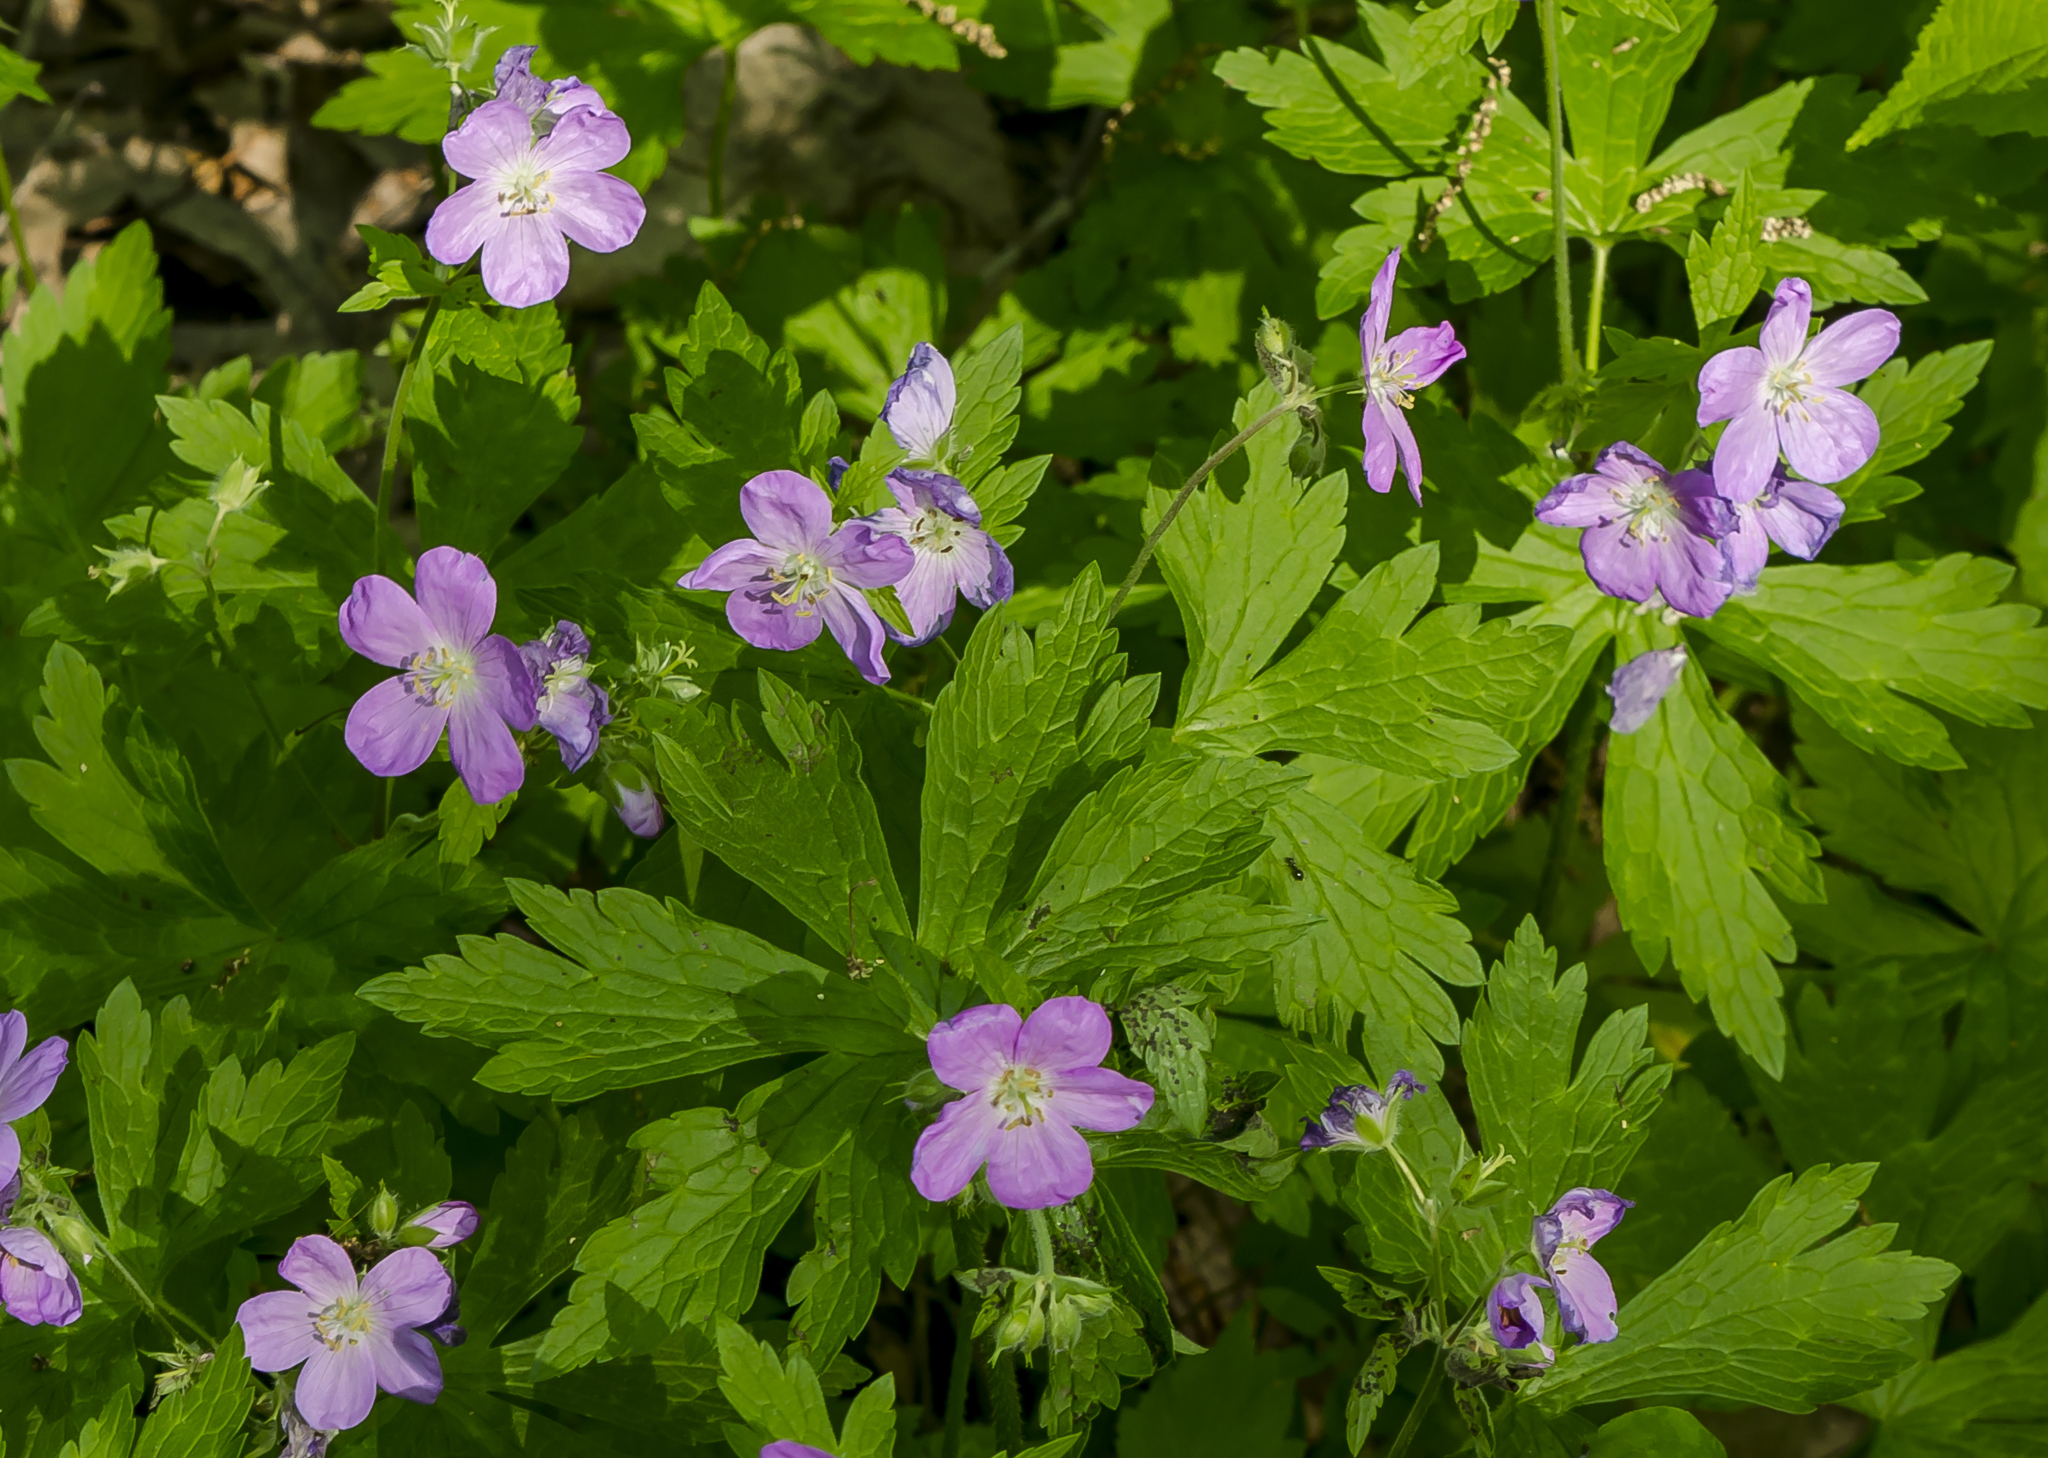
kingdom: Plantae
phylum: Tracheophyta
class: Magnoliopsida
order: Geraniales
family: Geraniaceae
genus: Geranium
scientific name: Geranium maculatum
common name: Spotted geranium
